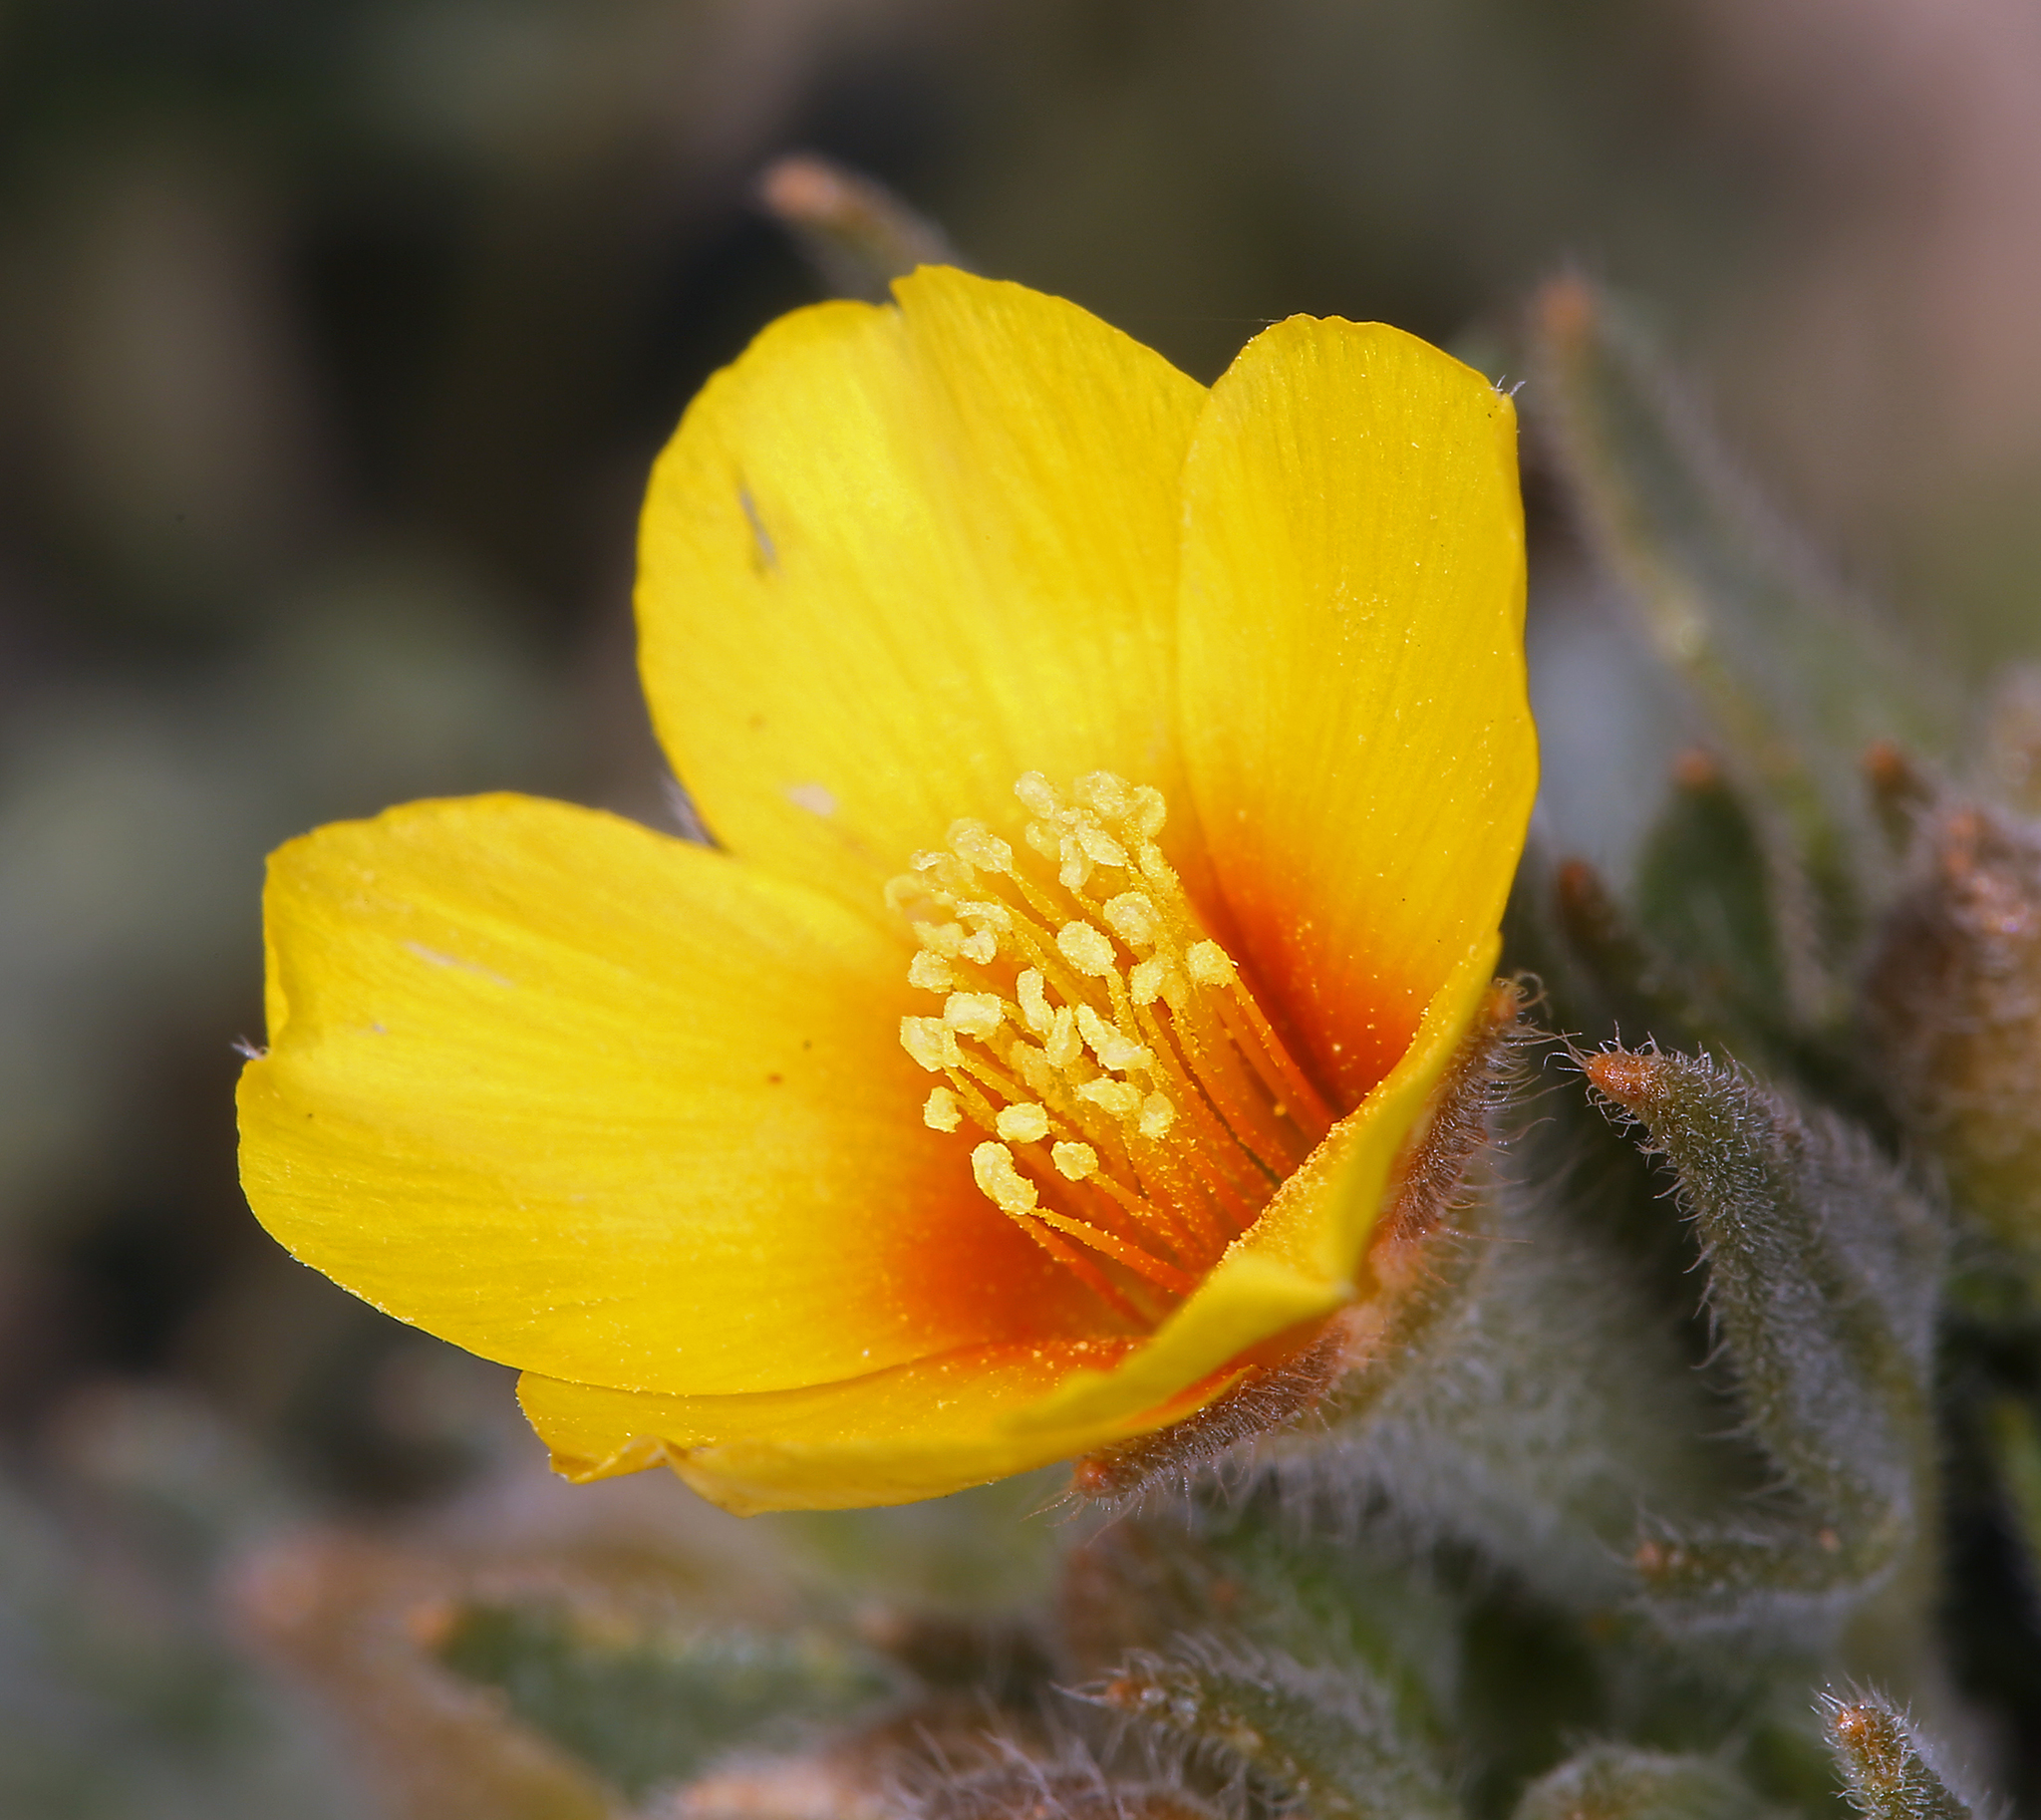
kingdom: Plantae
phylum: Tracheophyta
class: Magnoliopsida
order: Cornales
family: Loasaceae
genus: Mentzelia
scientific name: Mentzelia veatchiana
